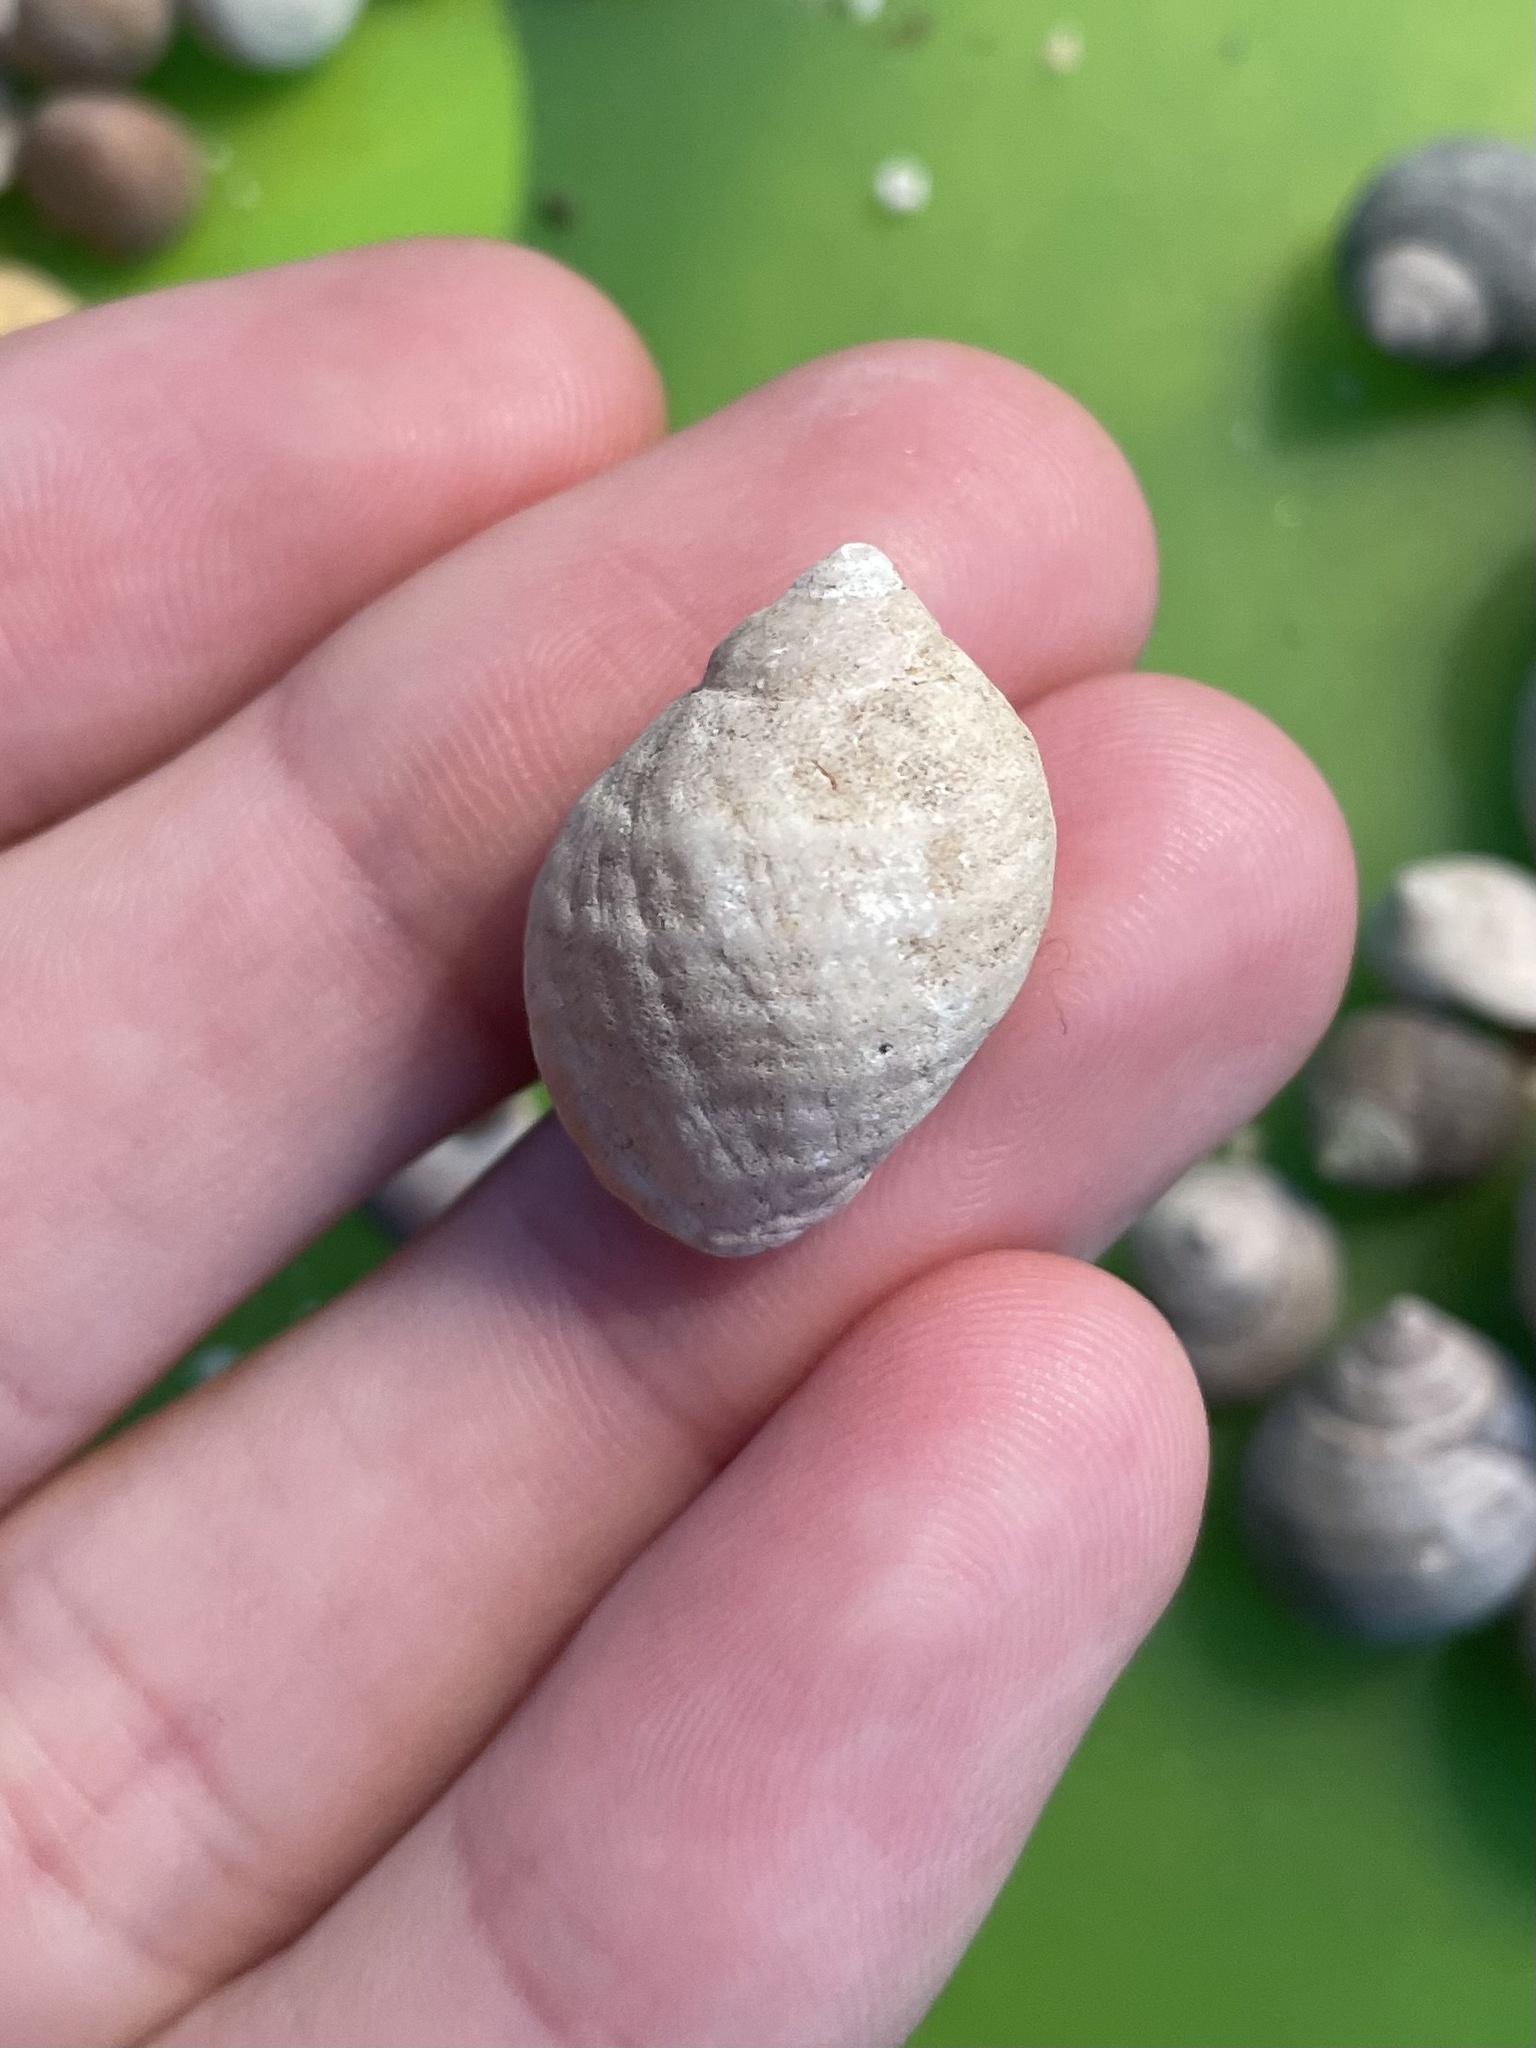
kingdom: Animalia
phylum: Mollusca
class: Gastropoda
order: Neogastropoda
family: Muricidae
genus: Nucella
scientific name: Nucella lapillus
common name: Dog whelk
